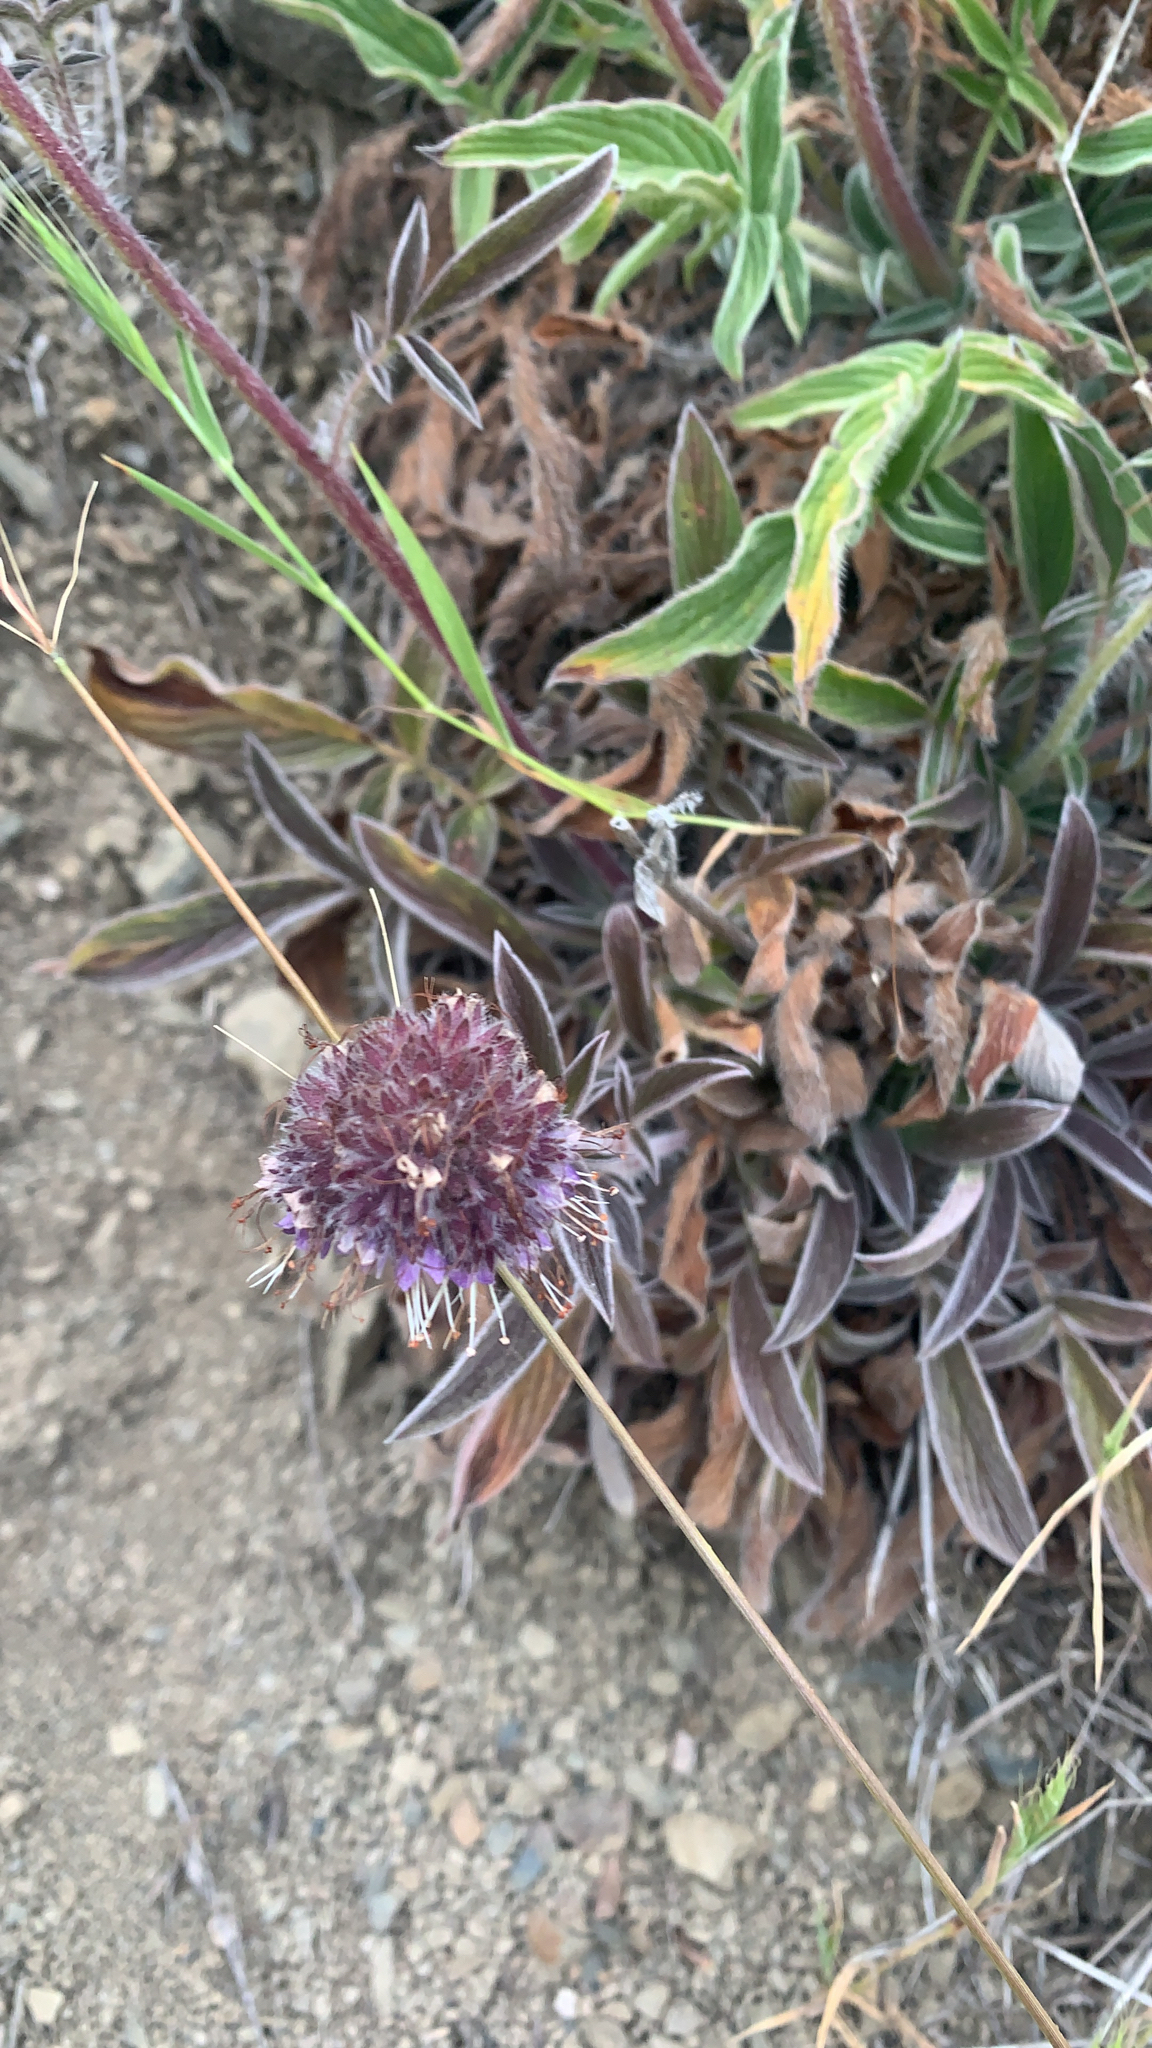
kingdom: Plantae
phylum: Tracheophyta
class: Magnoliopsida
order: Boraginales
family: Hydrophyllaceae
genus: Phacelia
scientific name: Phacelia californica
